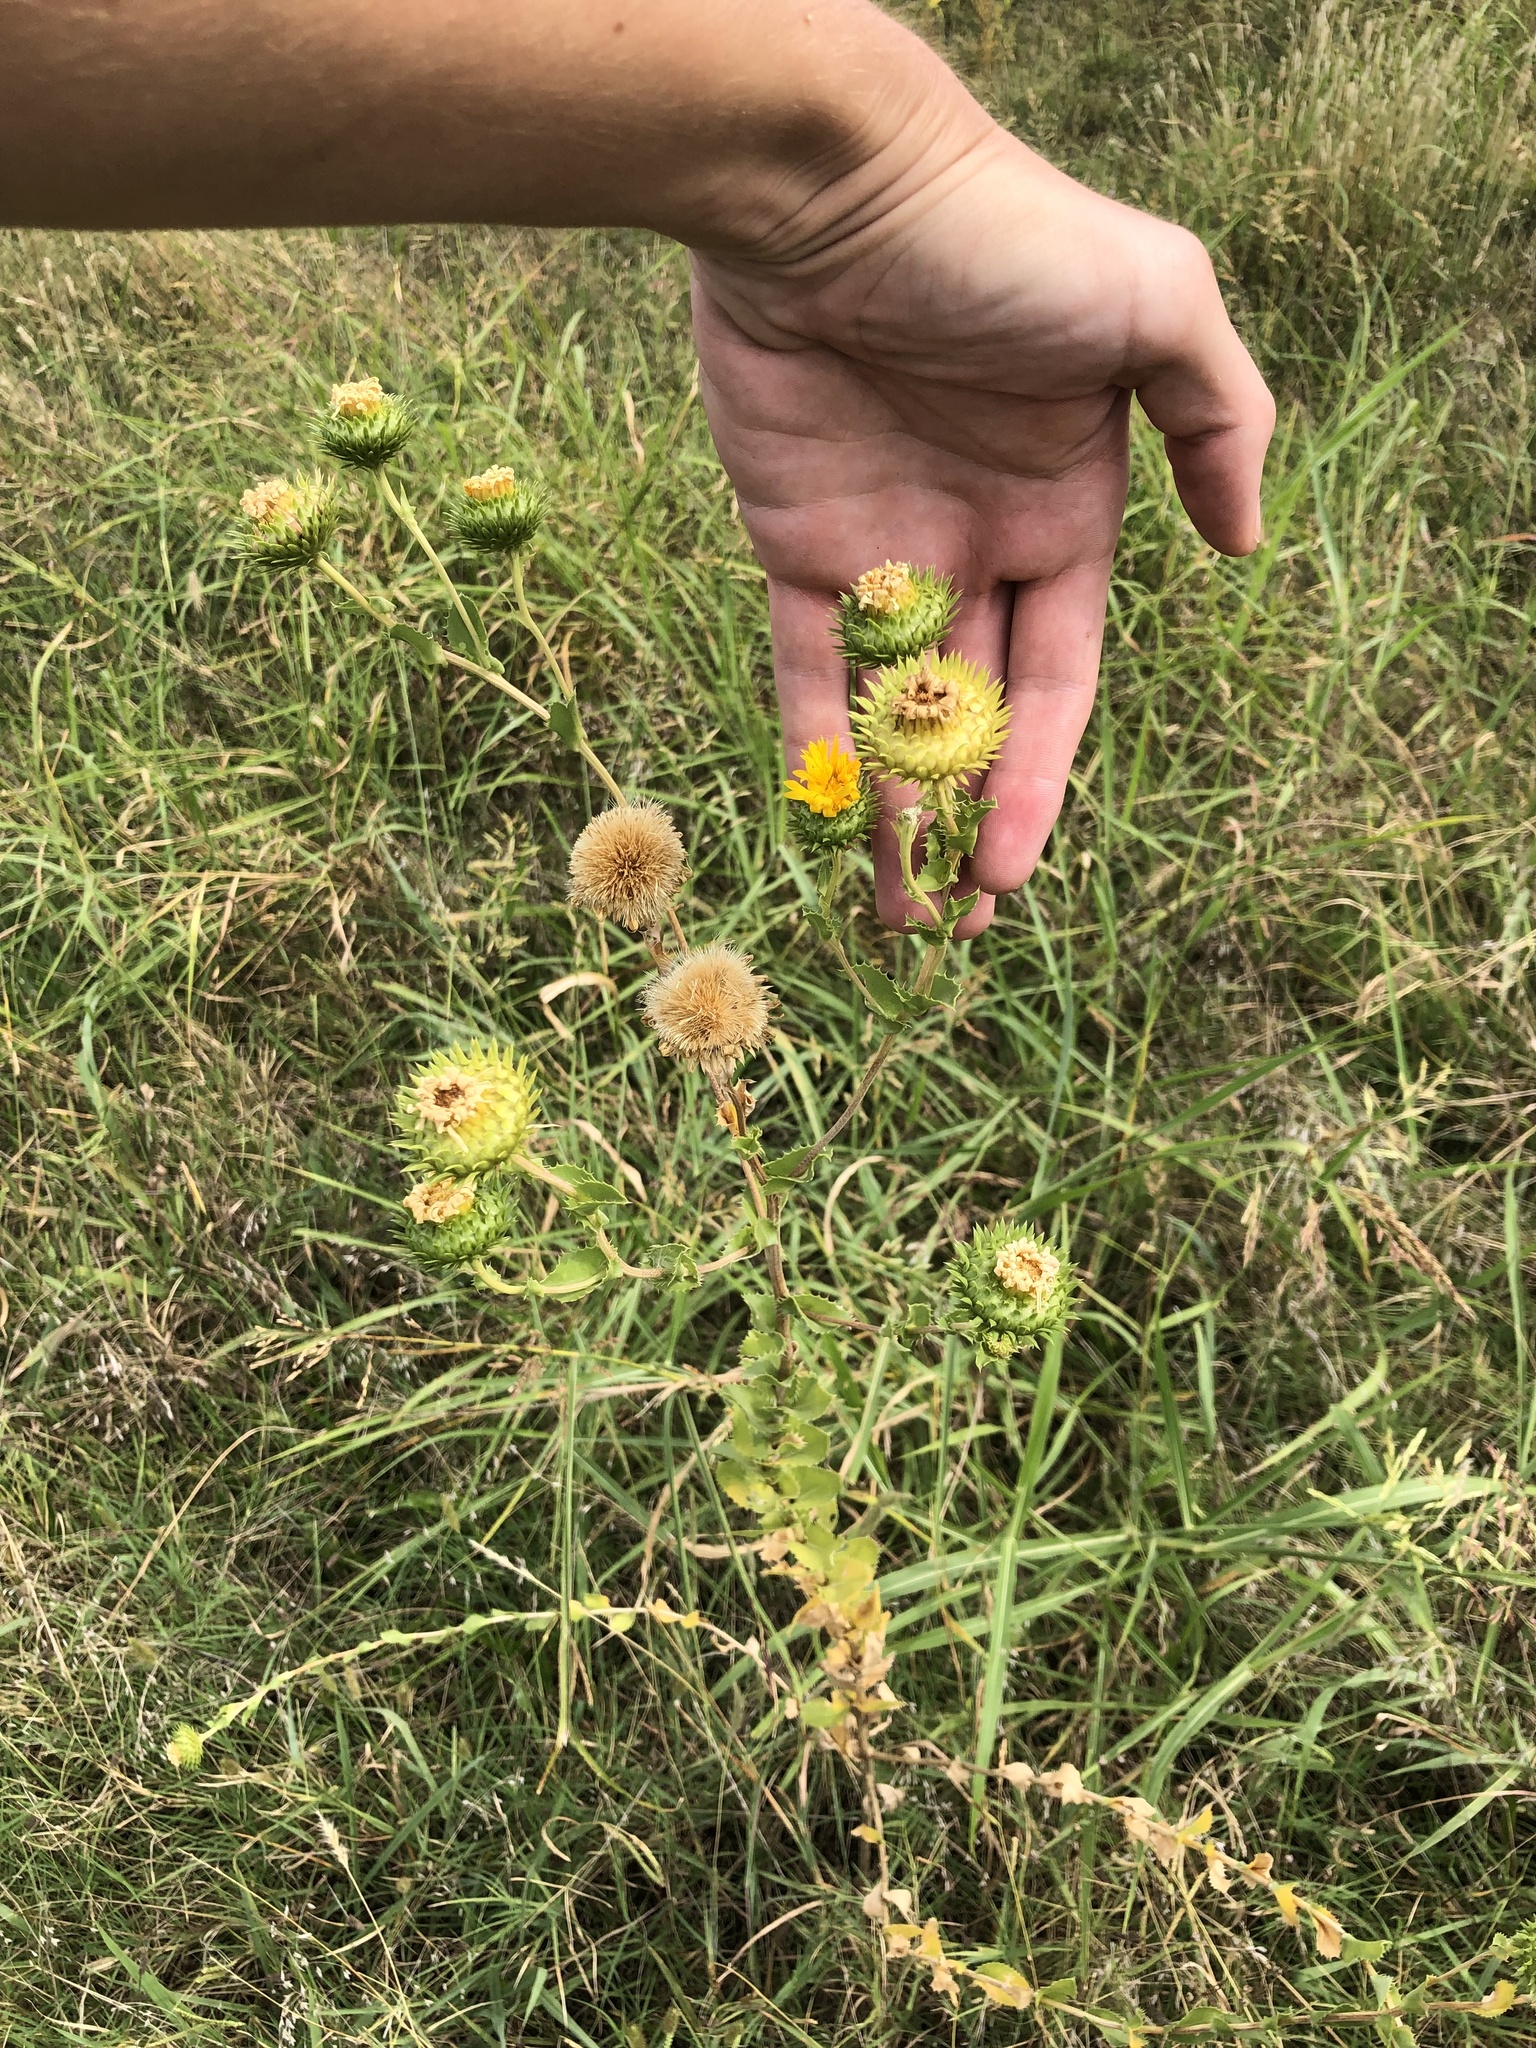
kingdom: Plantae
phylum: Tracheophyta
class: Magnoliopsida
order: Asterales
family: Asteraceae
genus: Grindelia
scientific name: Grindelia ciliata
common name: Goldenweed
